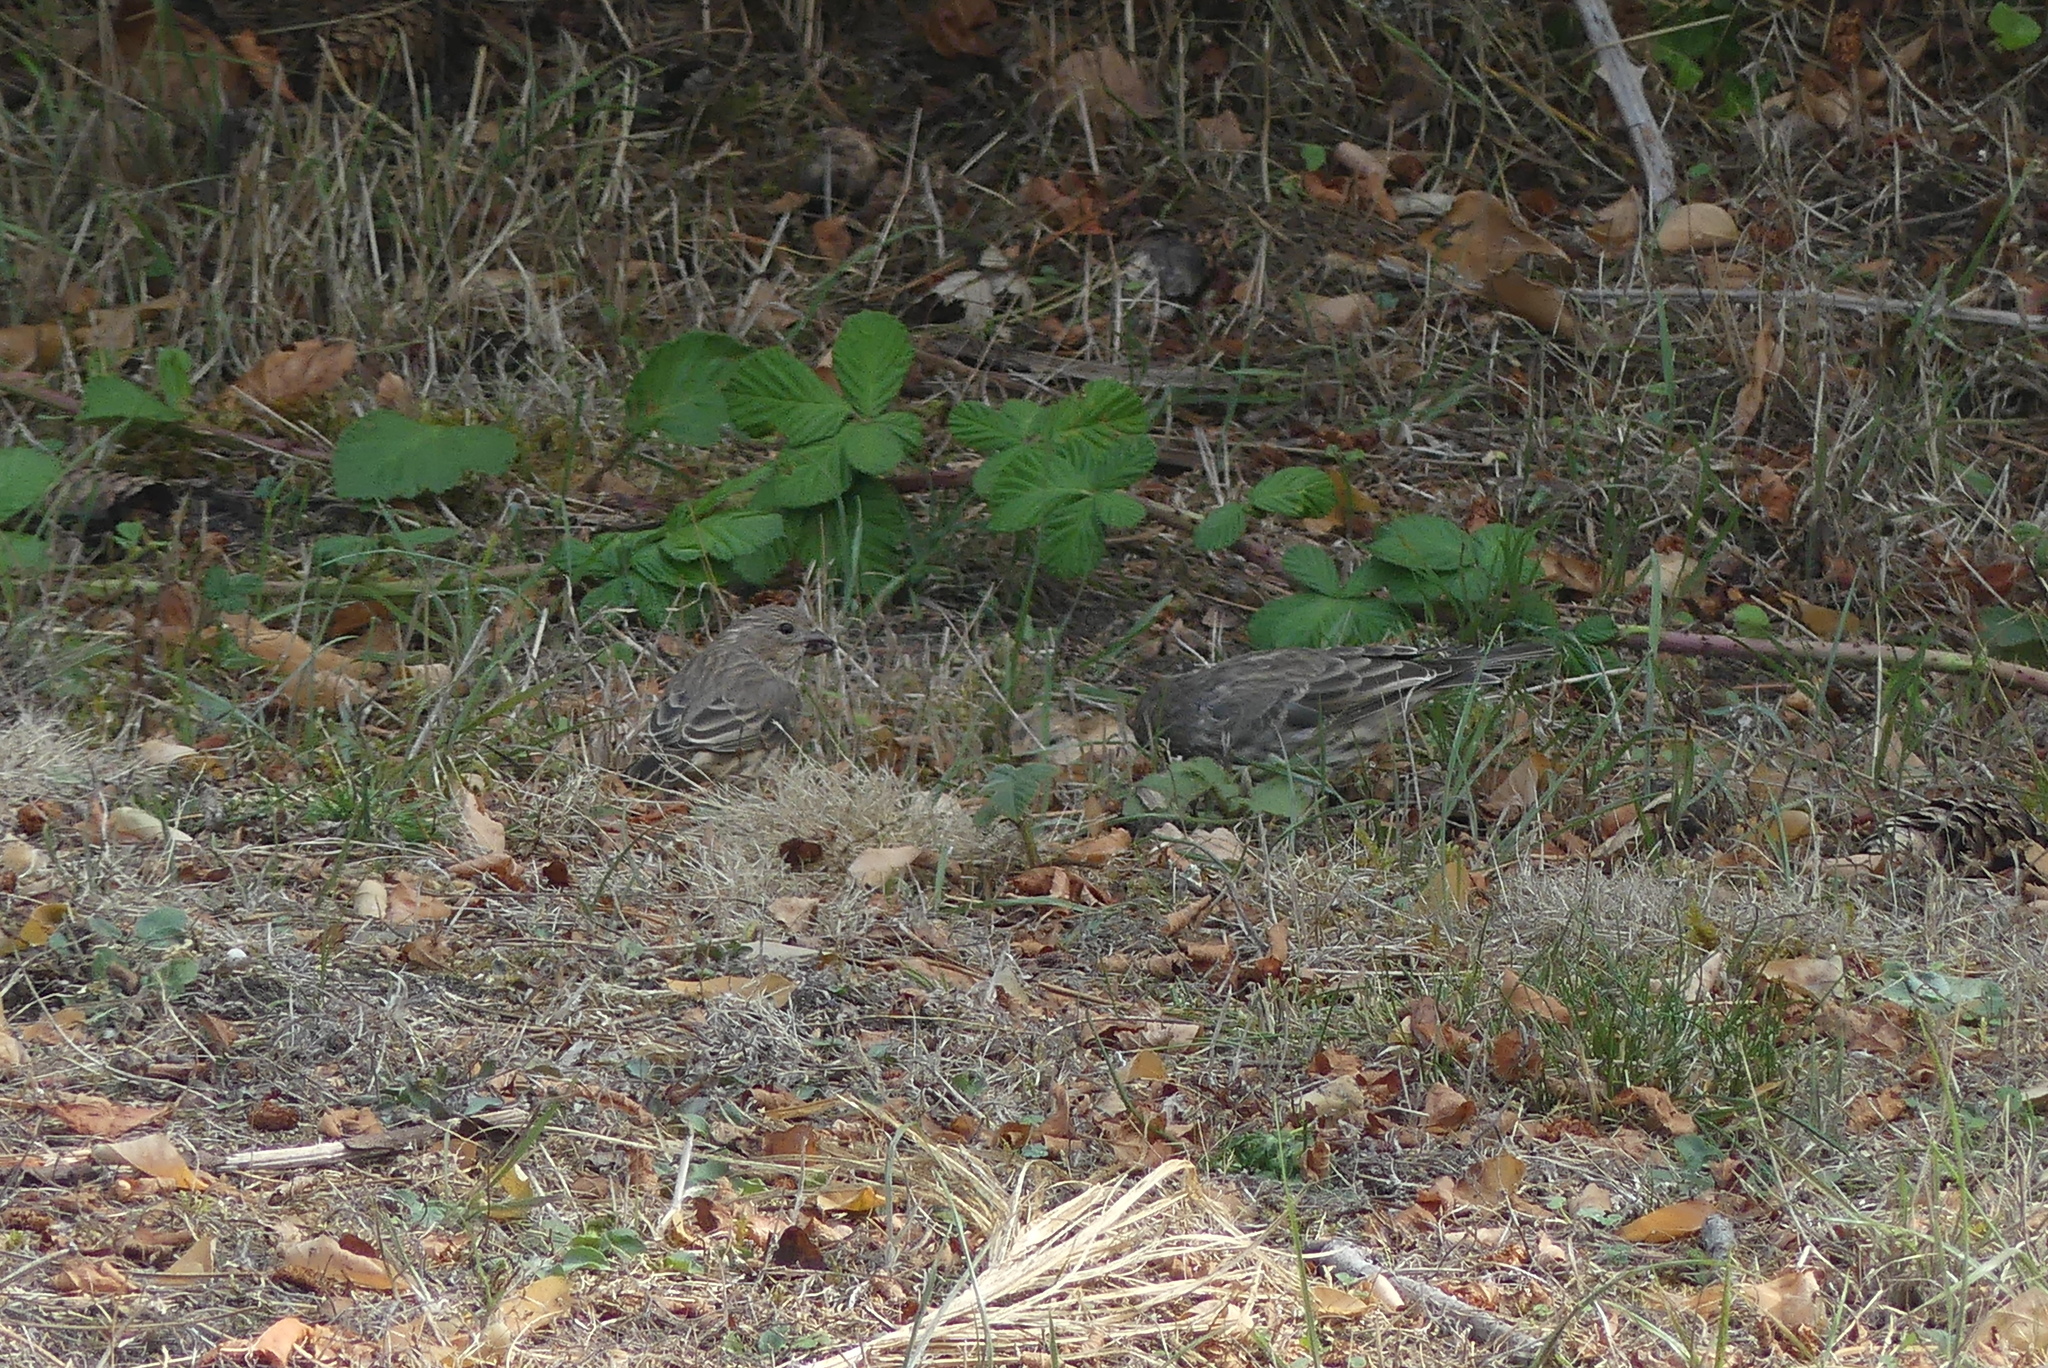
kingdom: Animalia
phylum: Chordata
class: Aves
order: Passeriformes
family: Fringillidae
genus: Haemorhous
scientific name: Haemorhous mexicanus
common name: House finch
